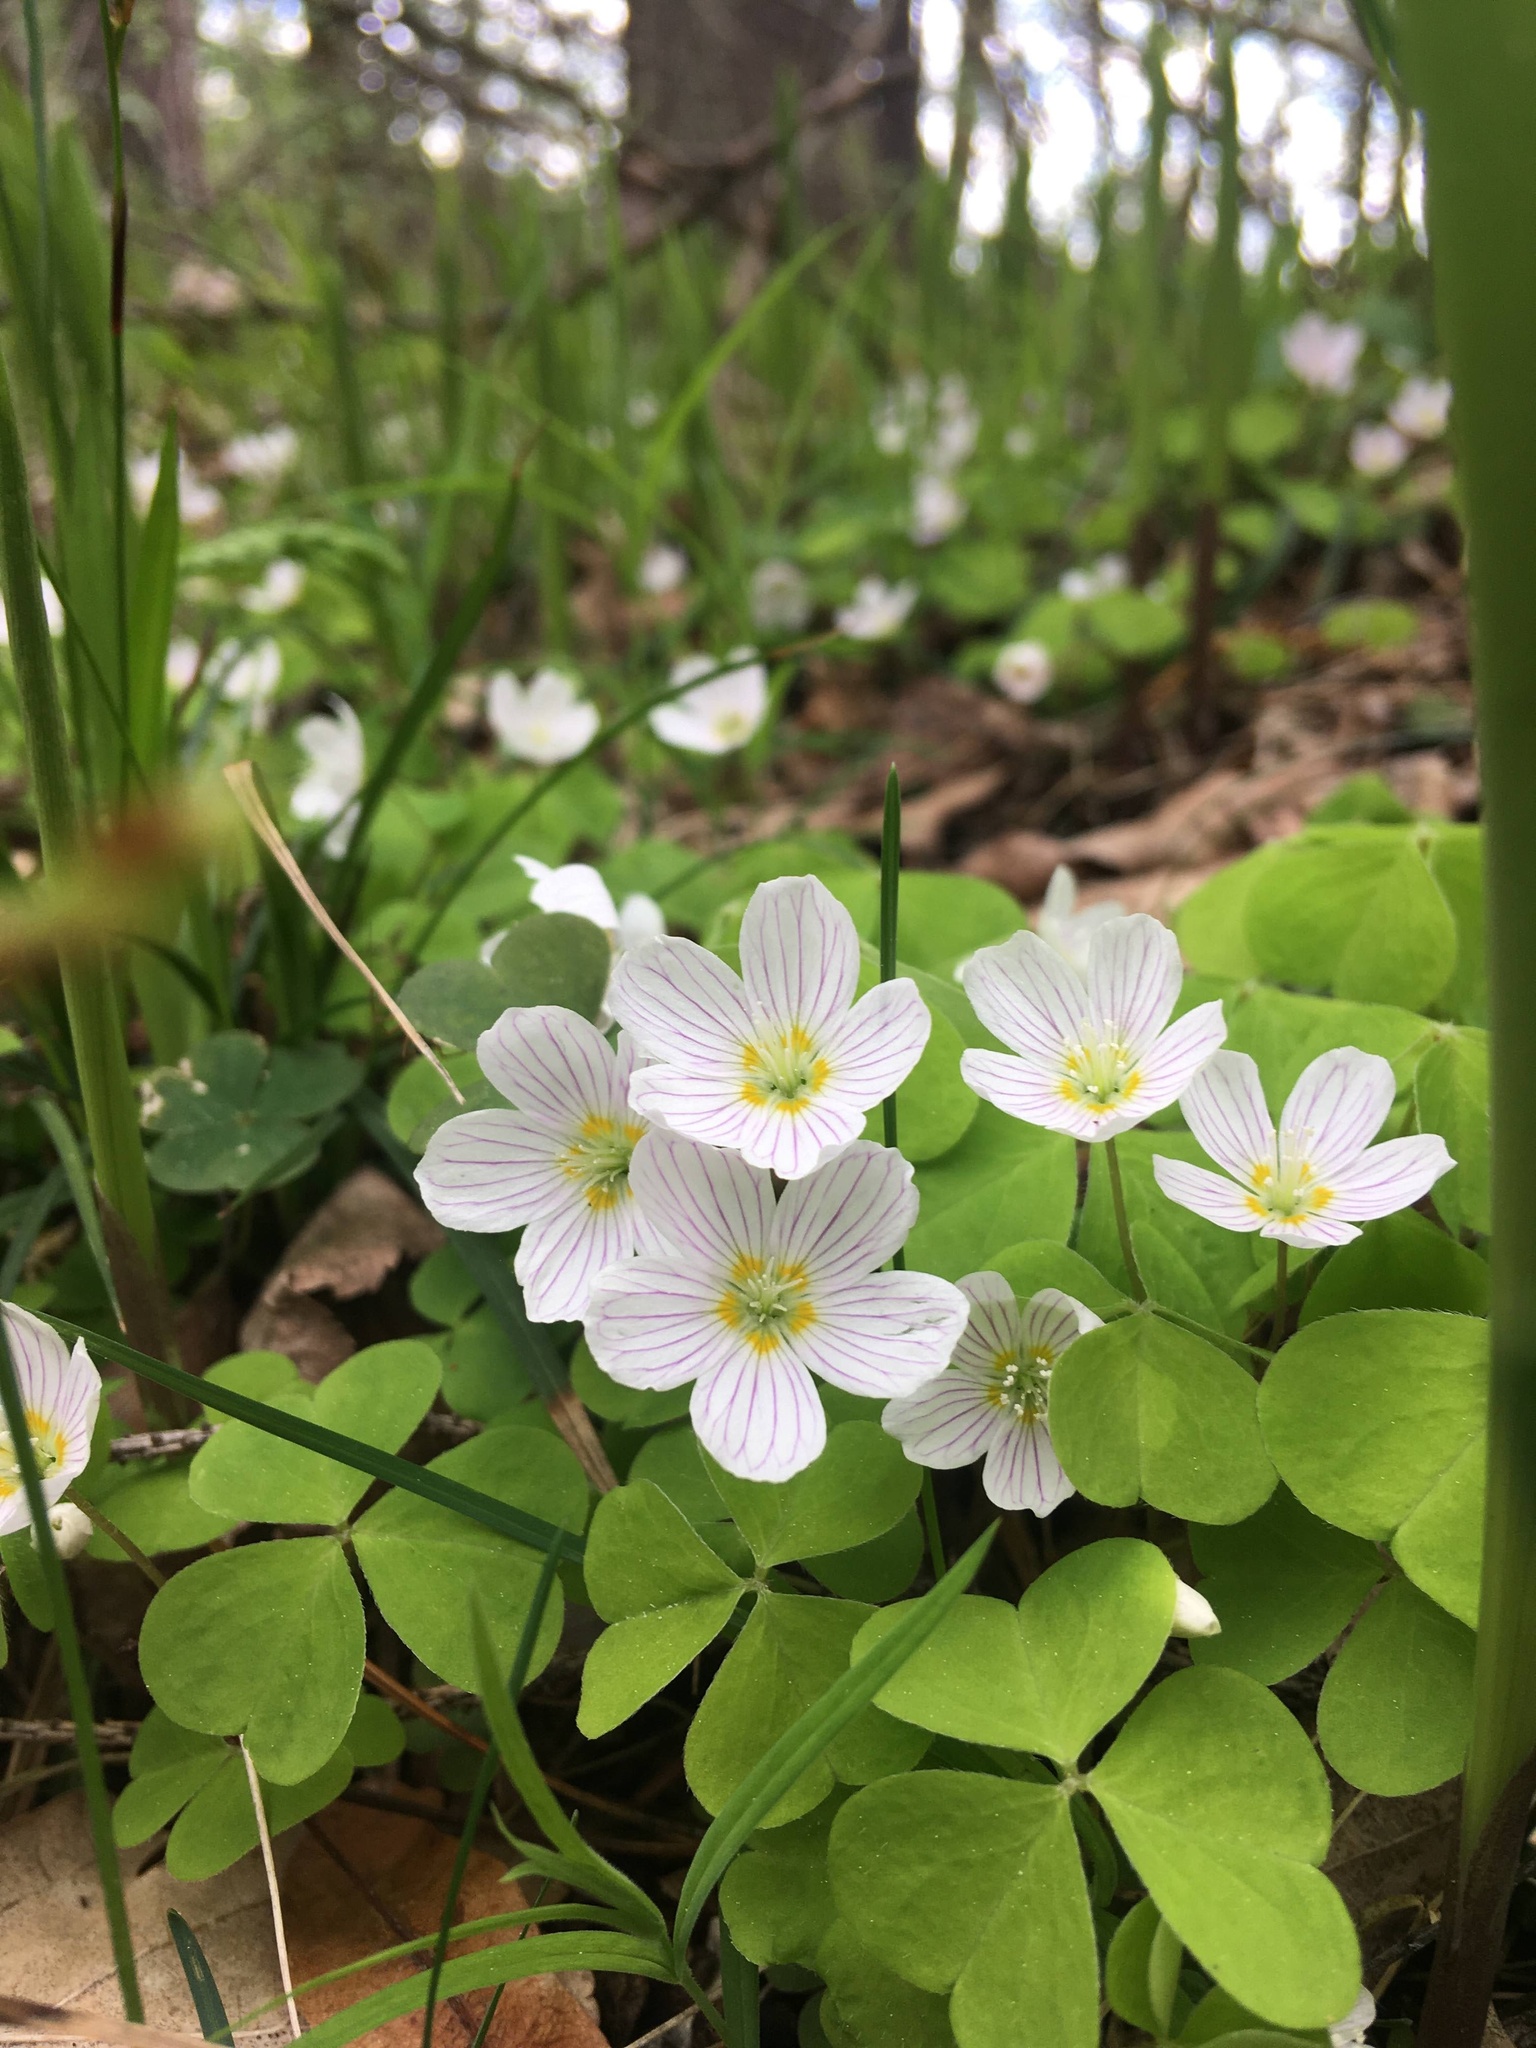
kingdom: Plantae
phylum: Tracheophyta
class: Magnoliopsida
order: Oxalidales
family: Oxalidaceae
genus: Oxalis
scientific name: Oxalis acetosella
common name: Wood-sorrel
